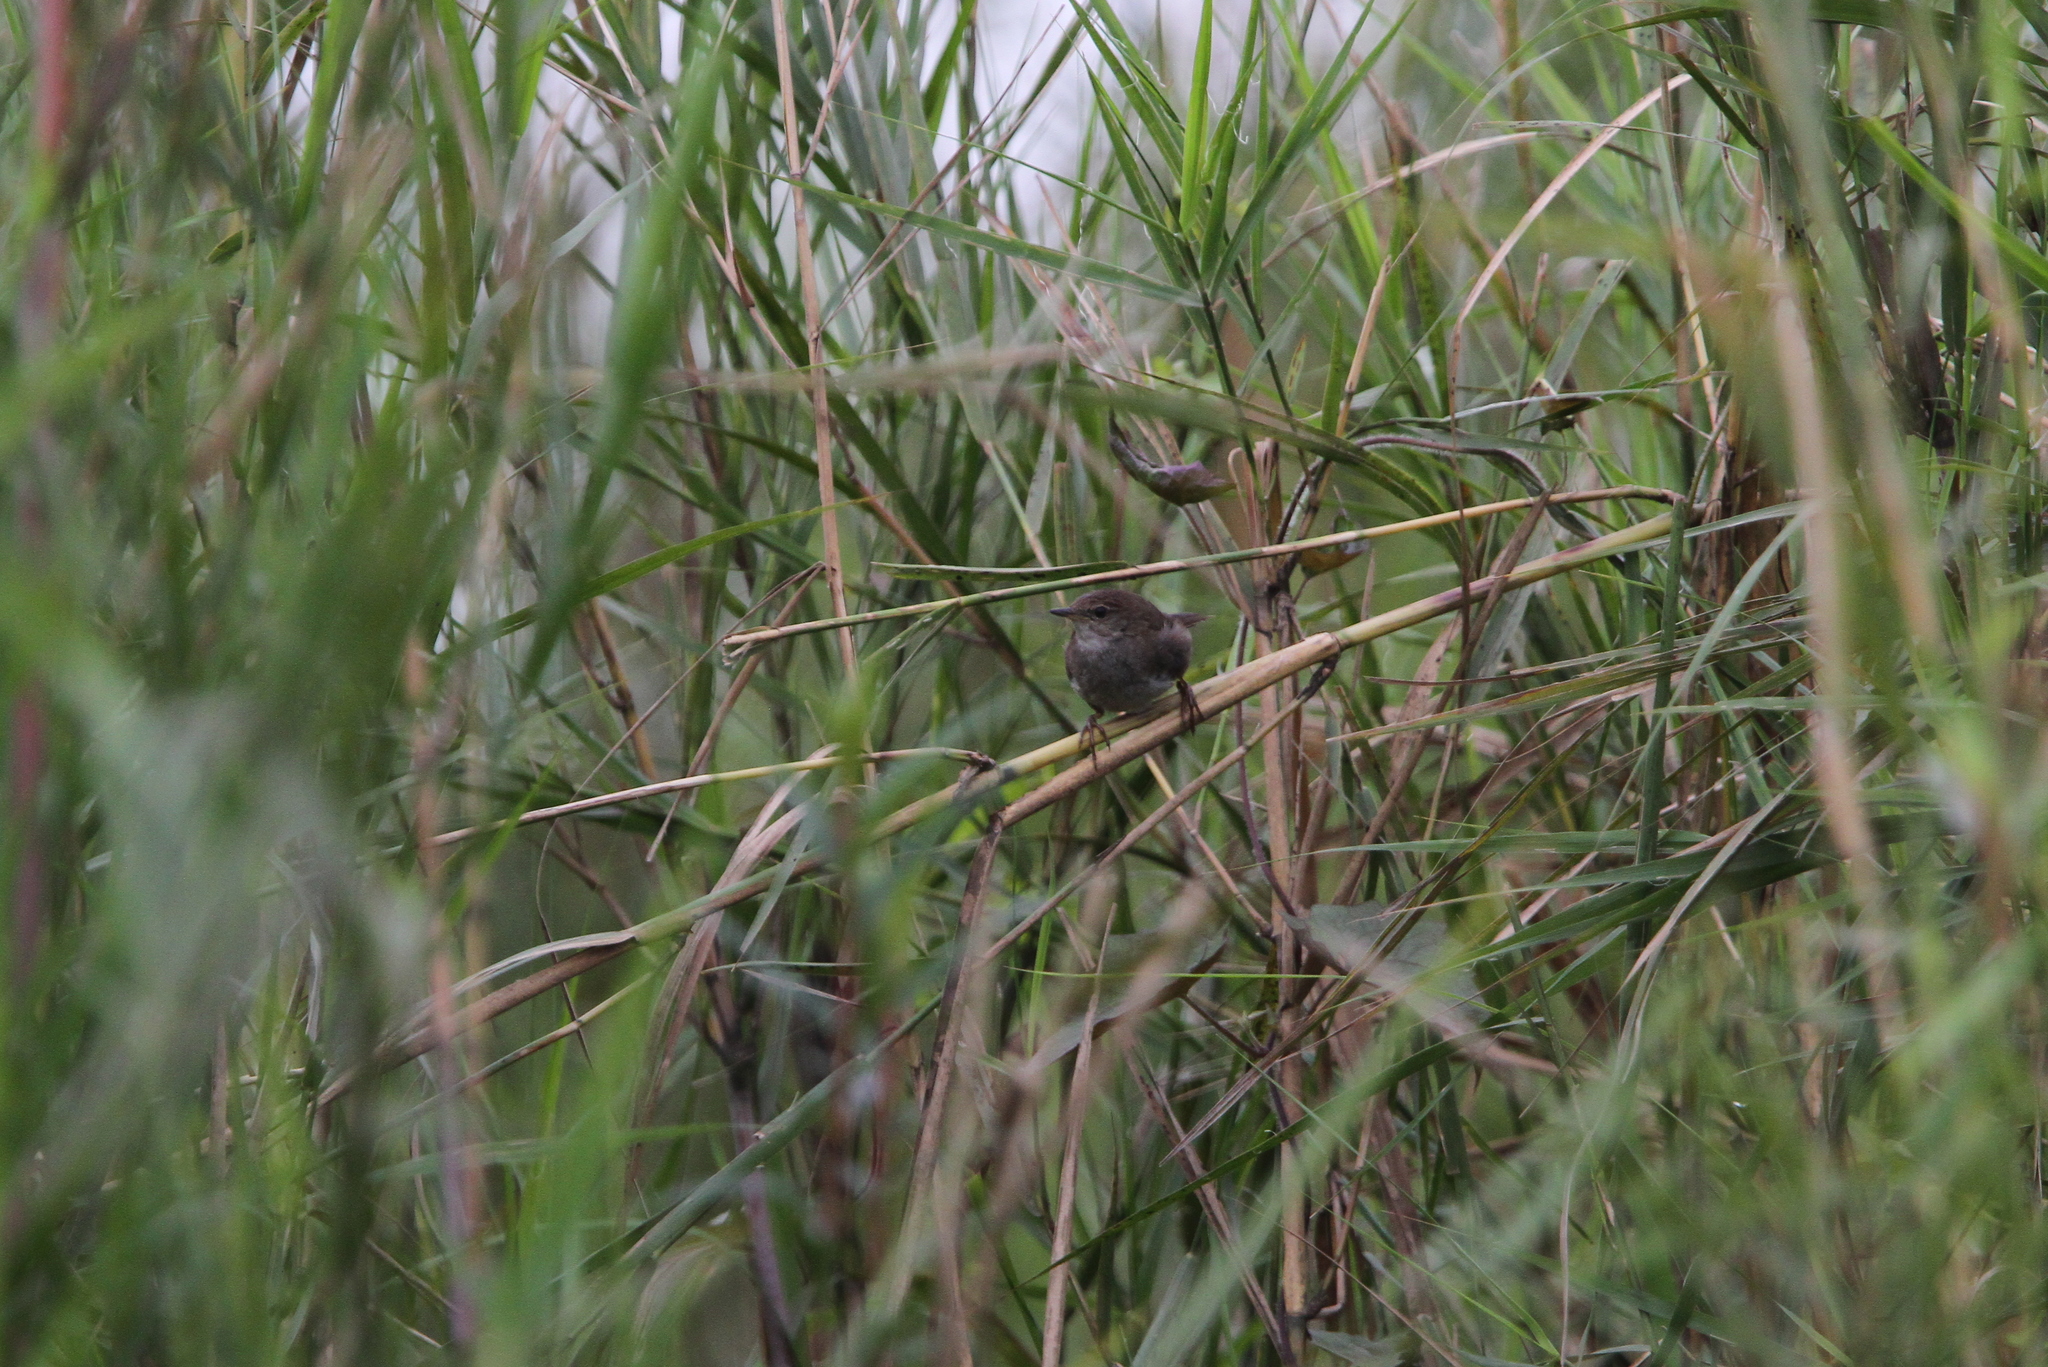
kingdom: Animalia
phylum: Chordata
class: Aves
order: Passeriformes
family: Locustellidae
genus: Locustella
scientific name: Locustella mandelli
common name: Russet bush warbler
